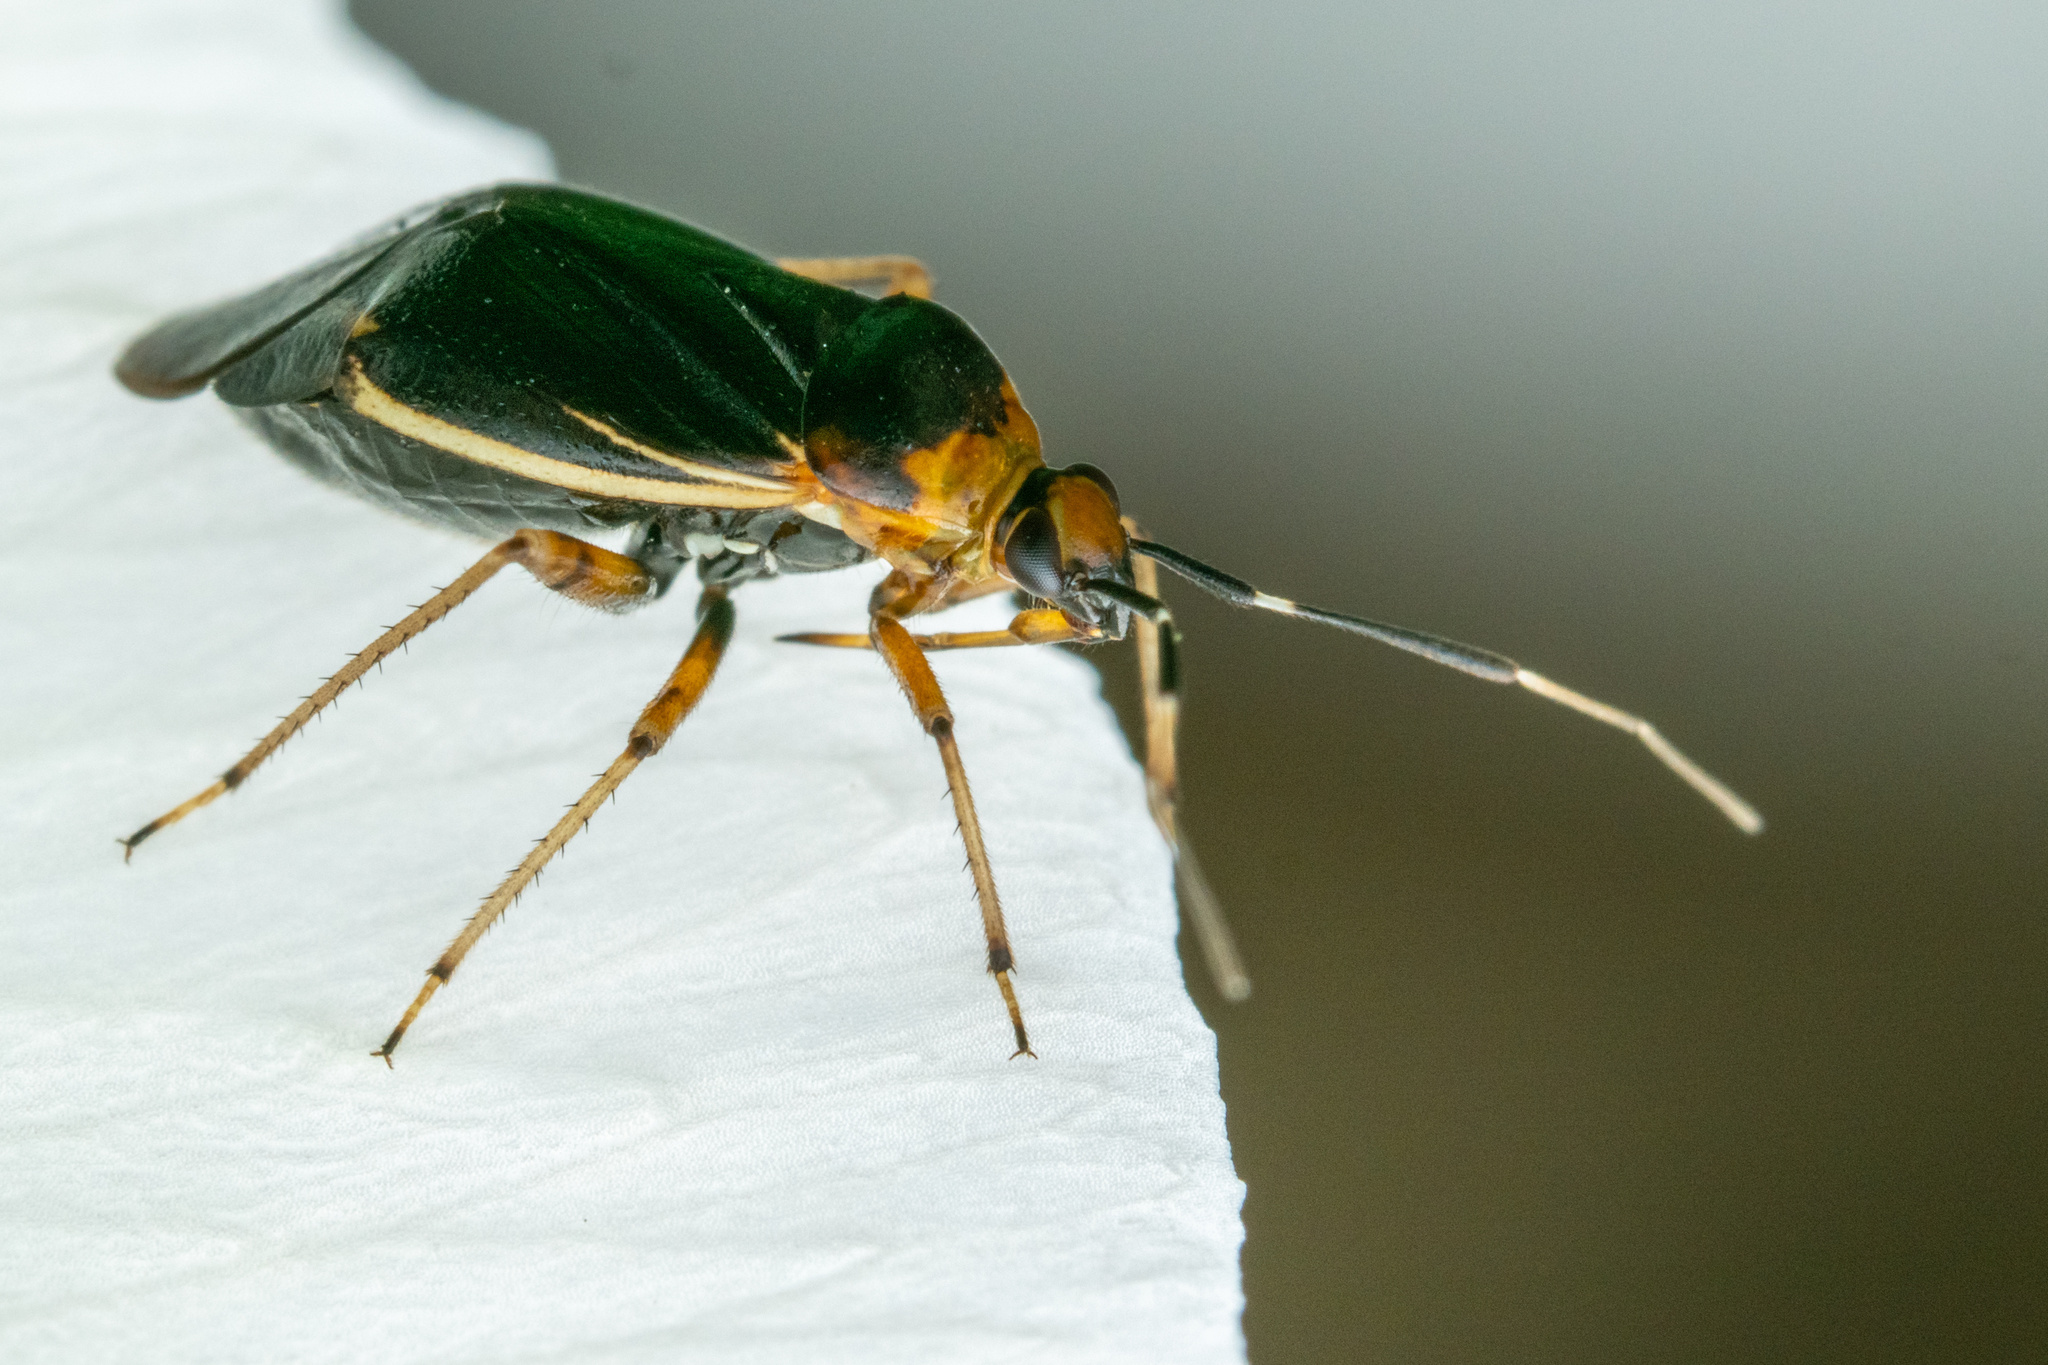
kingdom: Animalia
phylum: Arthropoda
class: Insecta
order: Hemiptera
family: Miridae
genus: Metriorrhynchomiris
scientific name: Metriorrhynchomiris dislocatus
